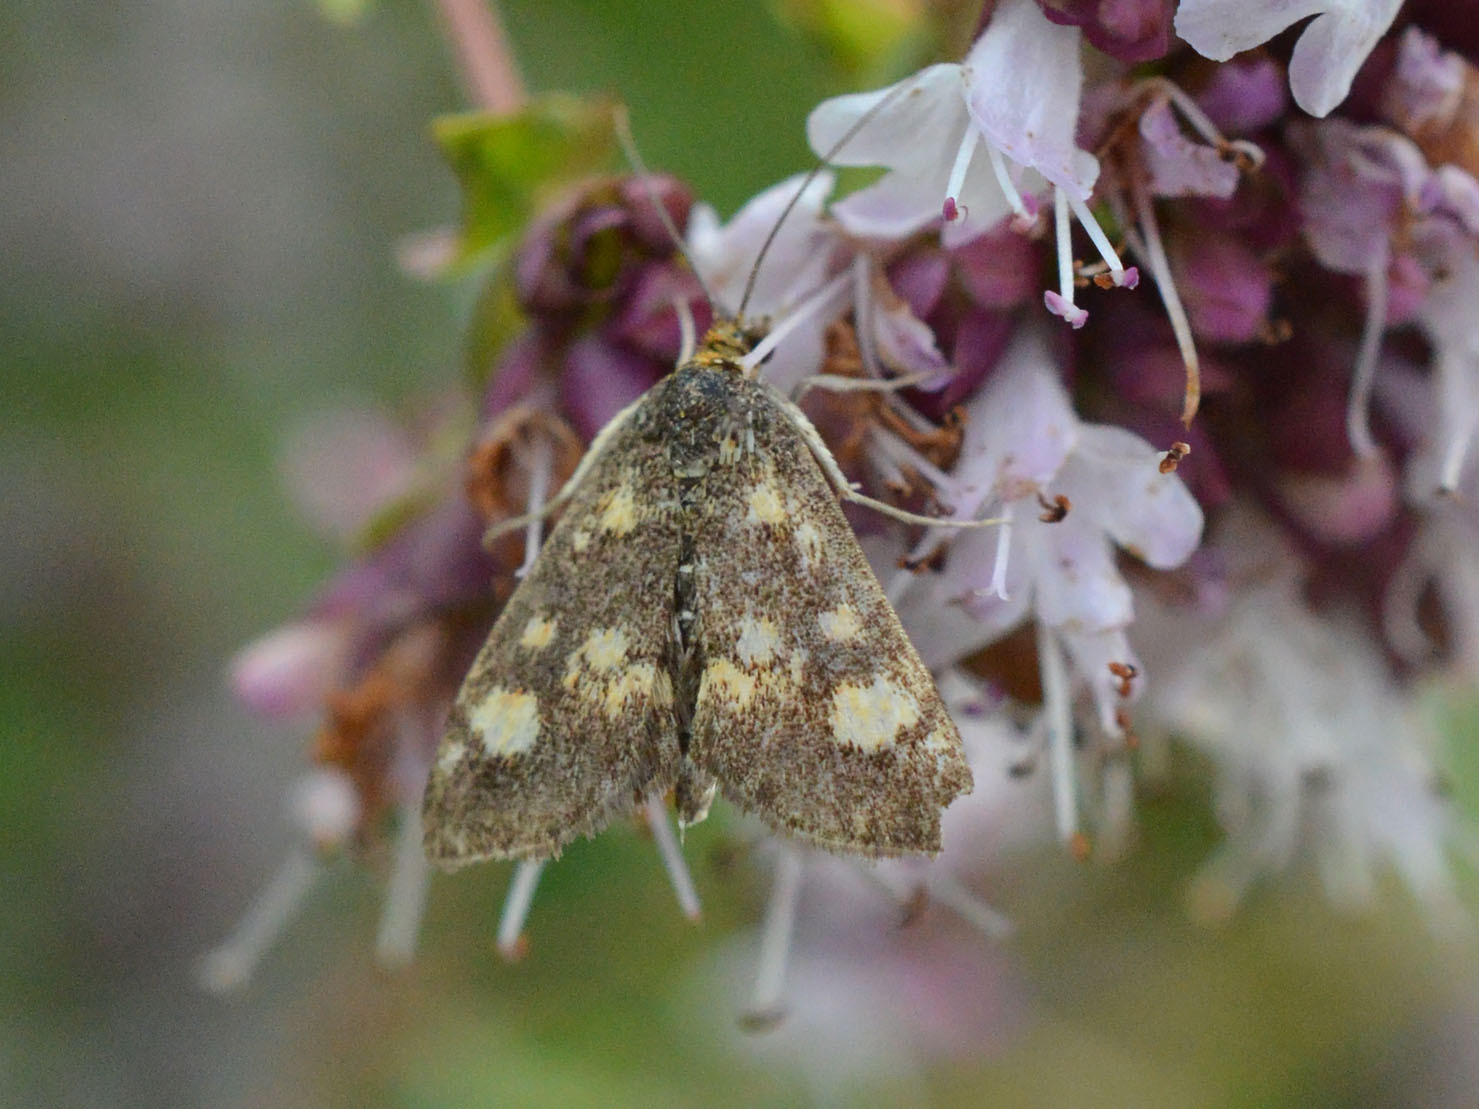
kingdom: Animalia
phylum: Arthropoda
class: Insecta
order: Lepidoptera
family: Crambidae
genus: Pyrausta
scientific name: Pyrausta aurata
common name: Small purple & gold
